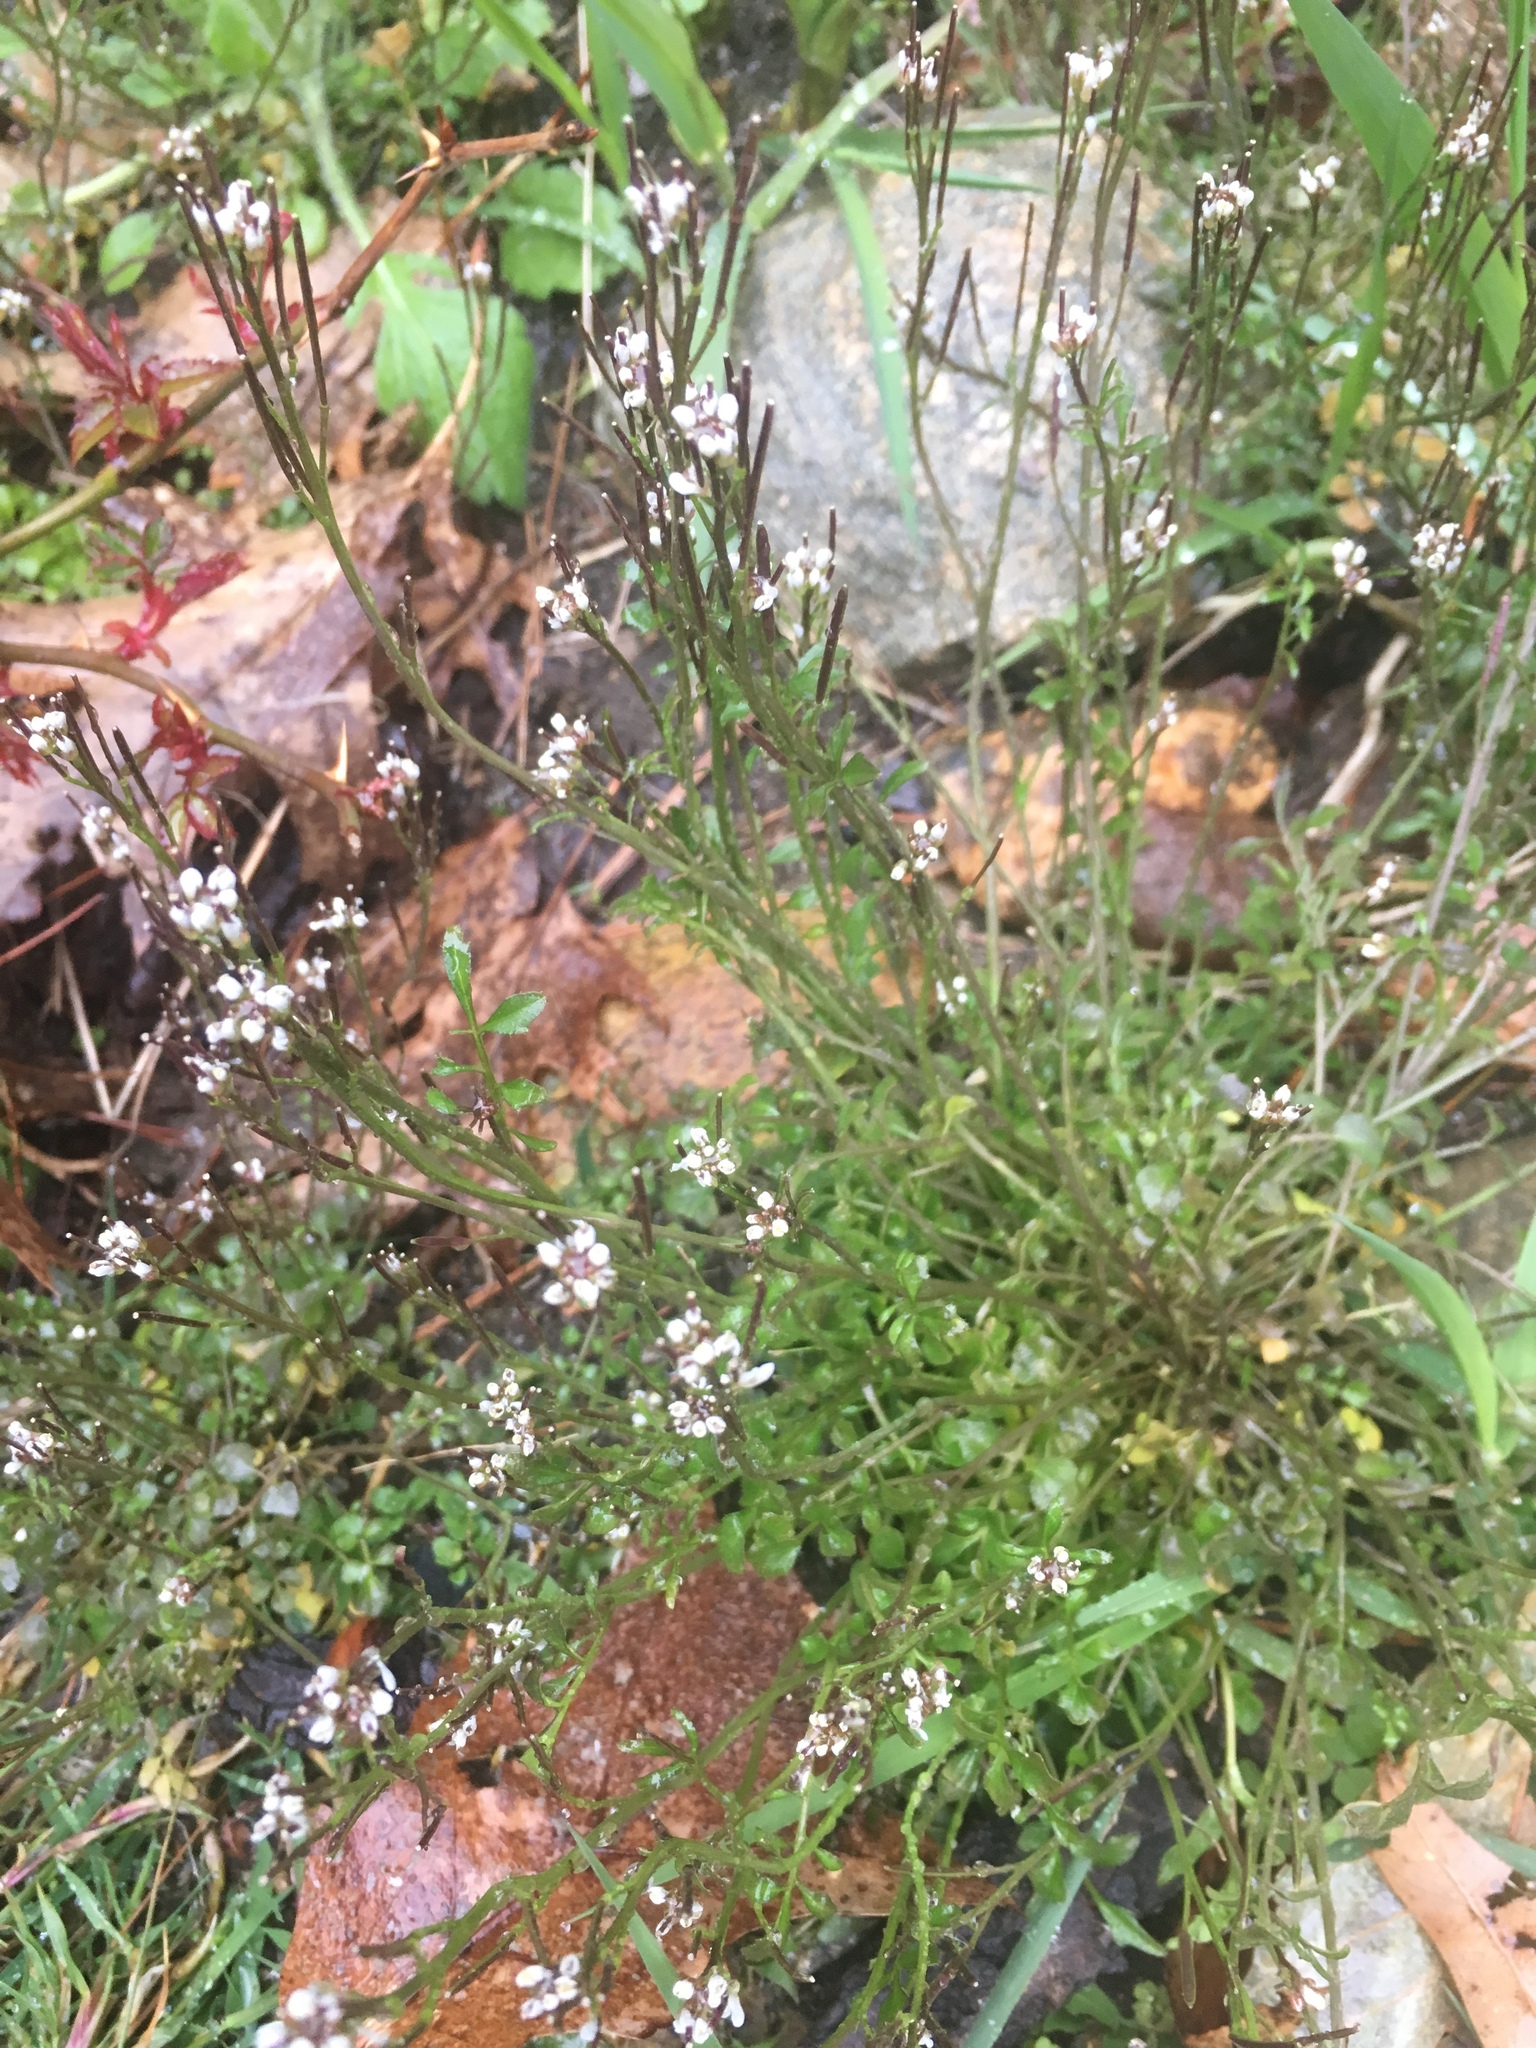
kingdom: Plantae
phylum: Tracheophyta
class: Magnoliopsida
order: Brassicales
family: Brassicaceae
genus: Cardamine
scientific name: Cardamine hirsuta
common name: Hairy bittercress
